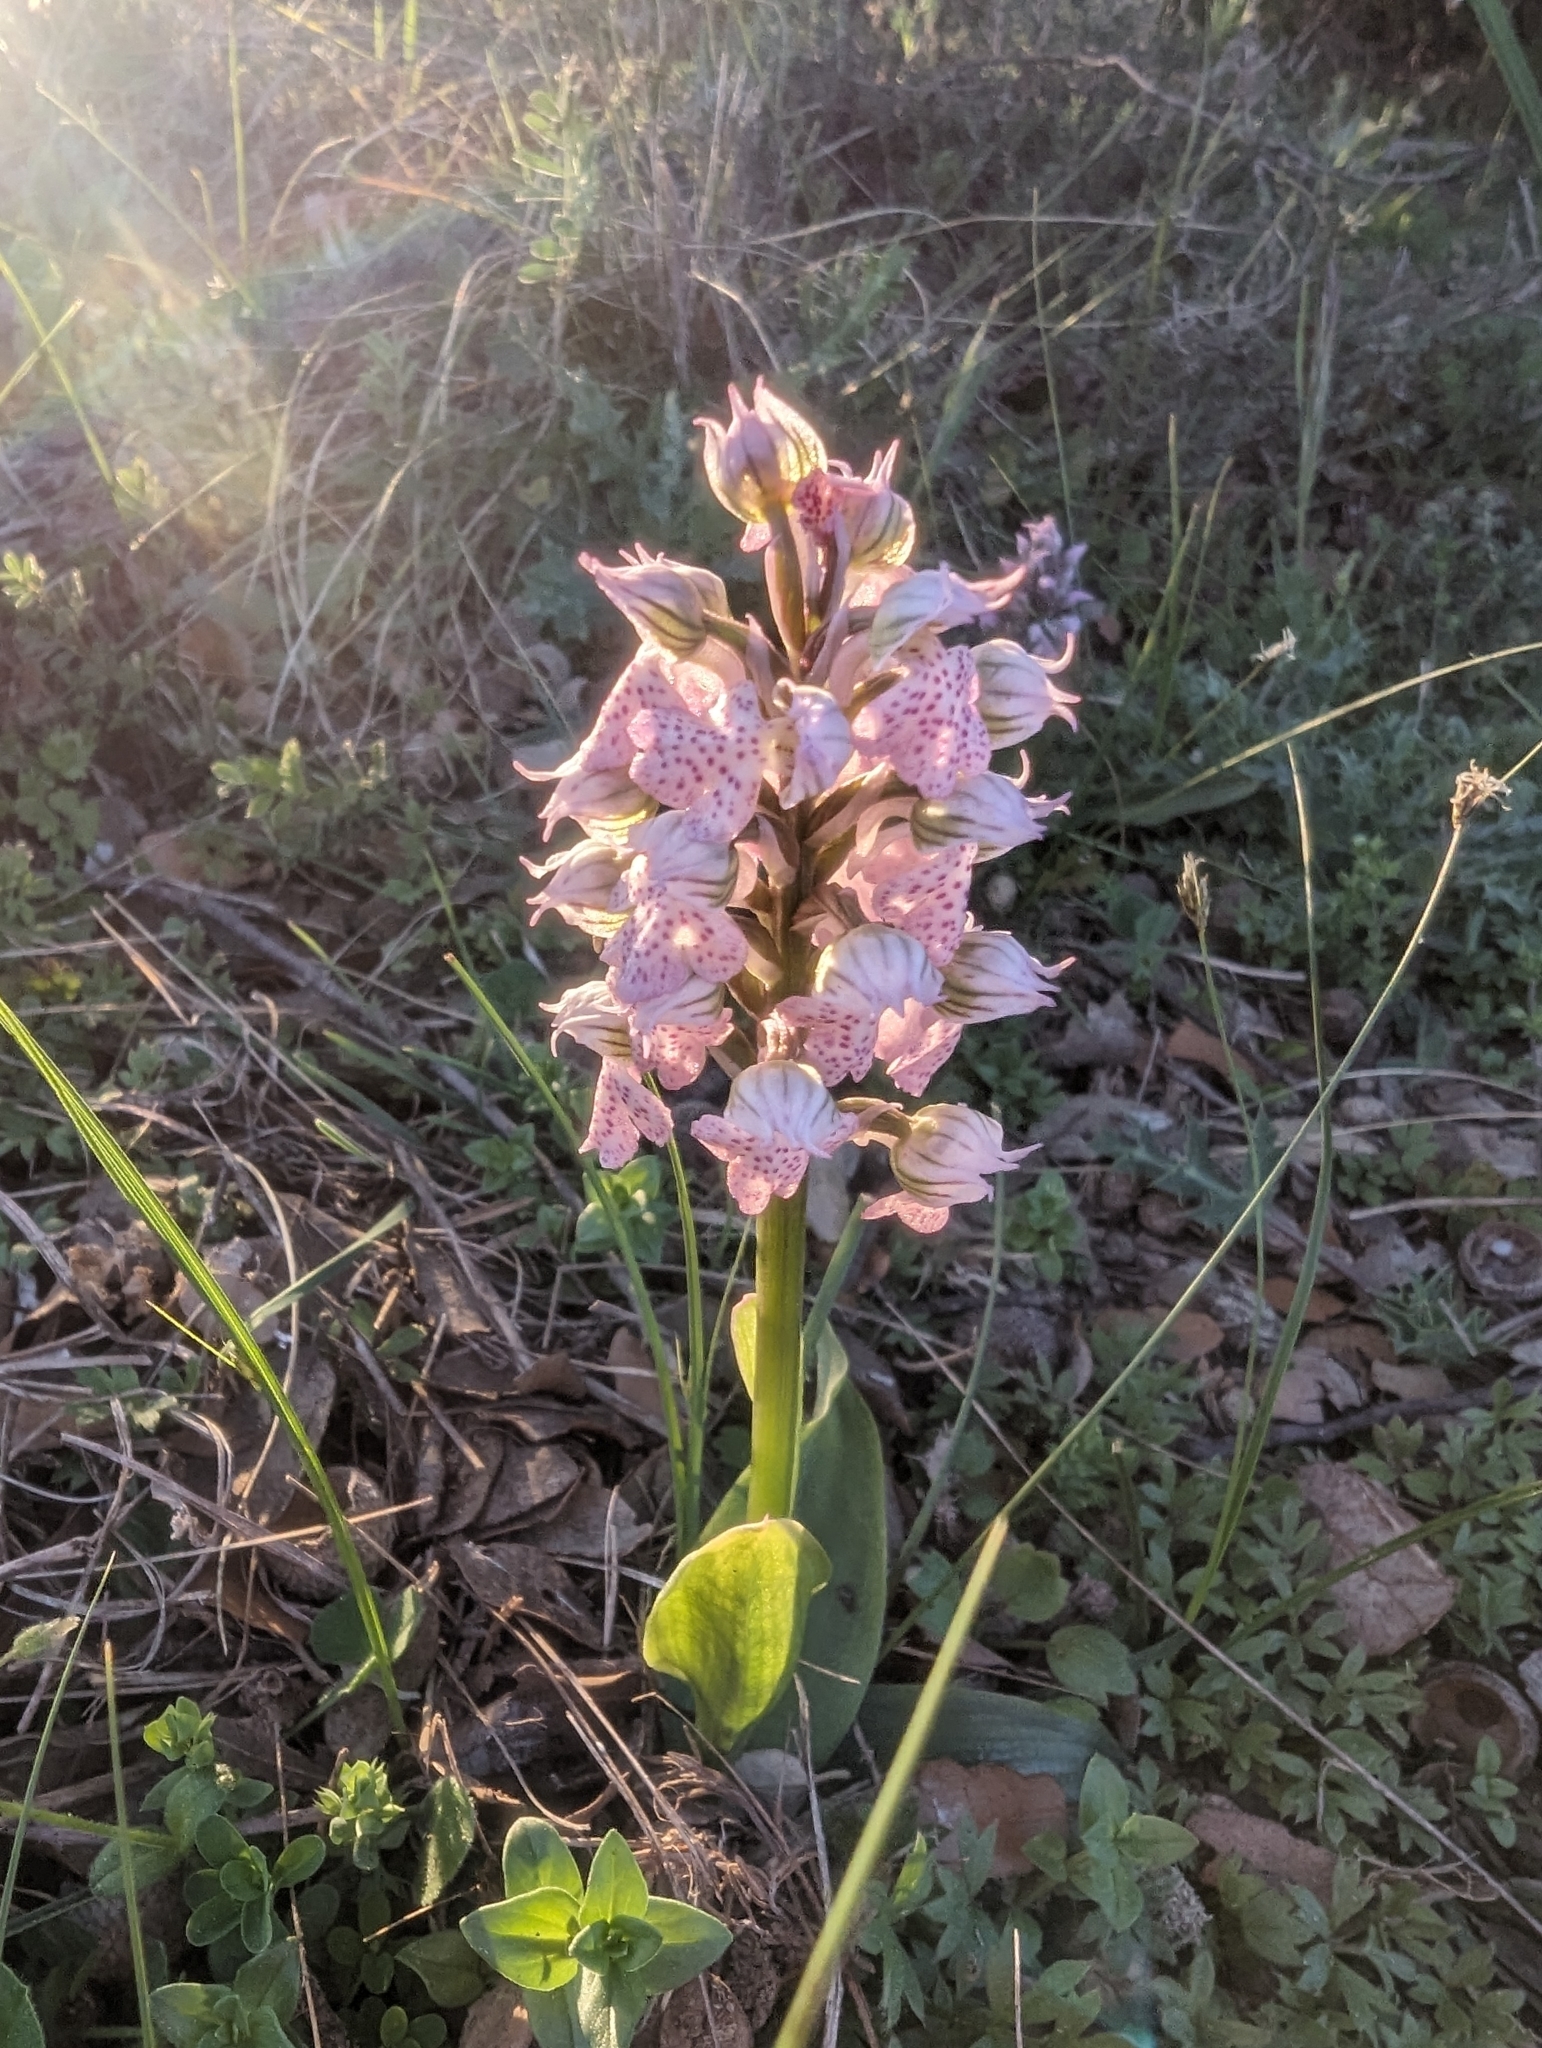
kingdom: Plantae
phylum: Tracheophyta
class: Liliopsida
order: Asparagales
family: Orchidaceae
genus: Neotinea
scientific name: Neotinea lactea
